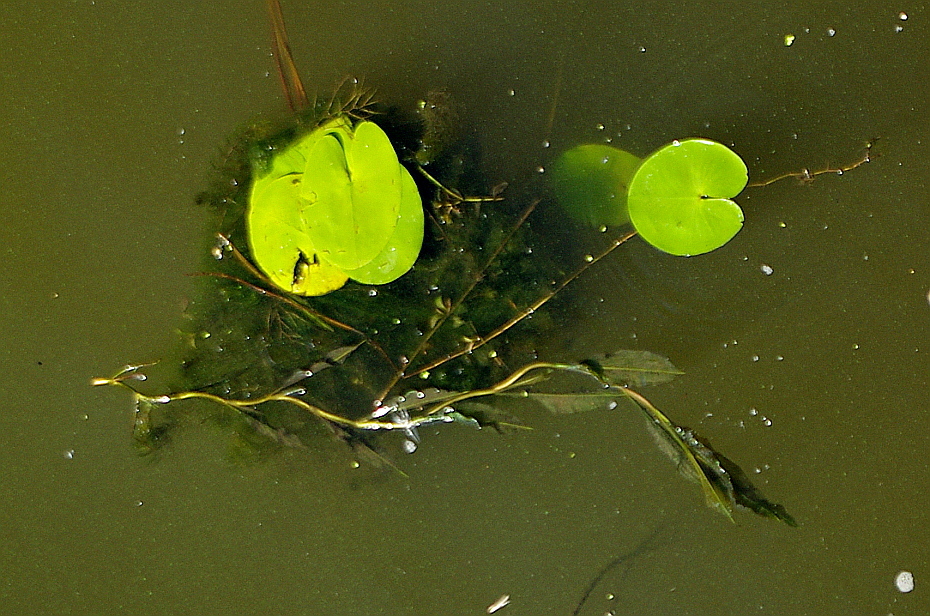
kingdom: Plantae
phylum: Tracheophyta
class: Liliopsida
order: Alismatales
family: Potamogetonaceae
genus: Potamogeton
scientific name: Potamogeton lucens
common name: Shining pondweed
